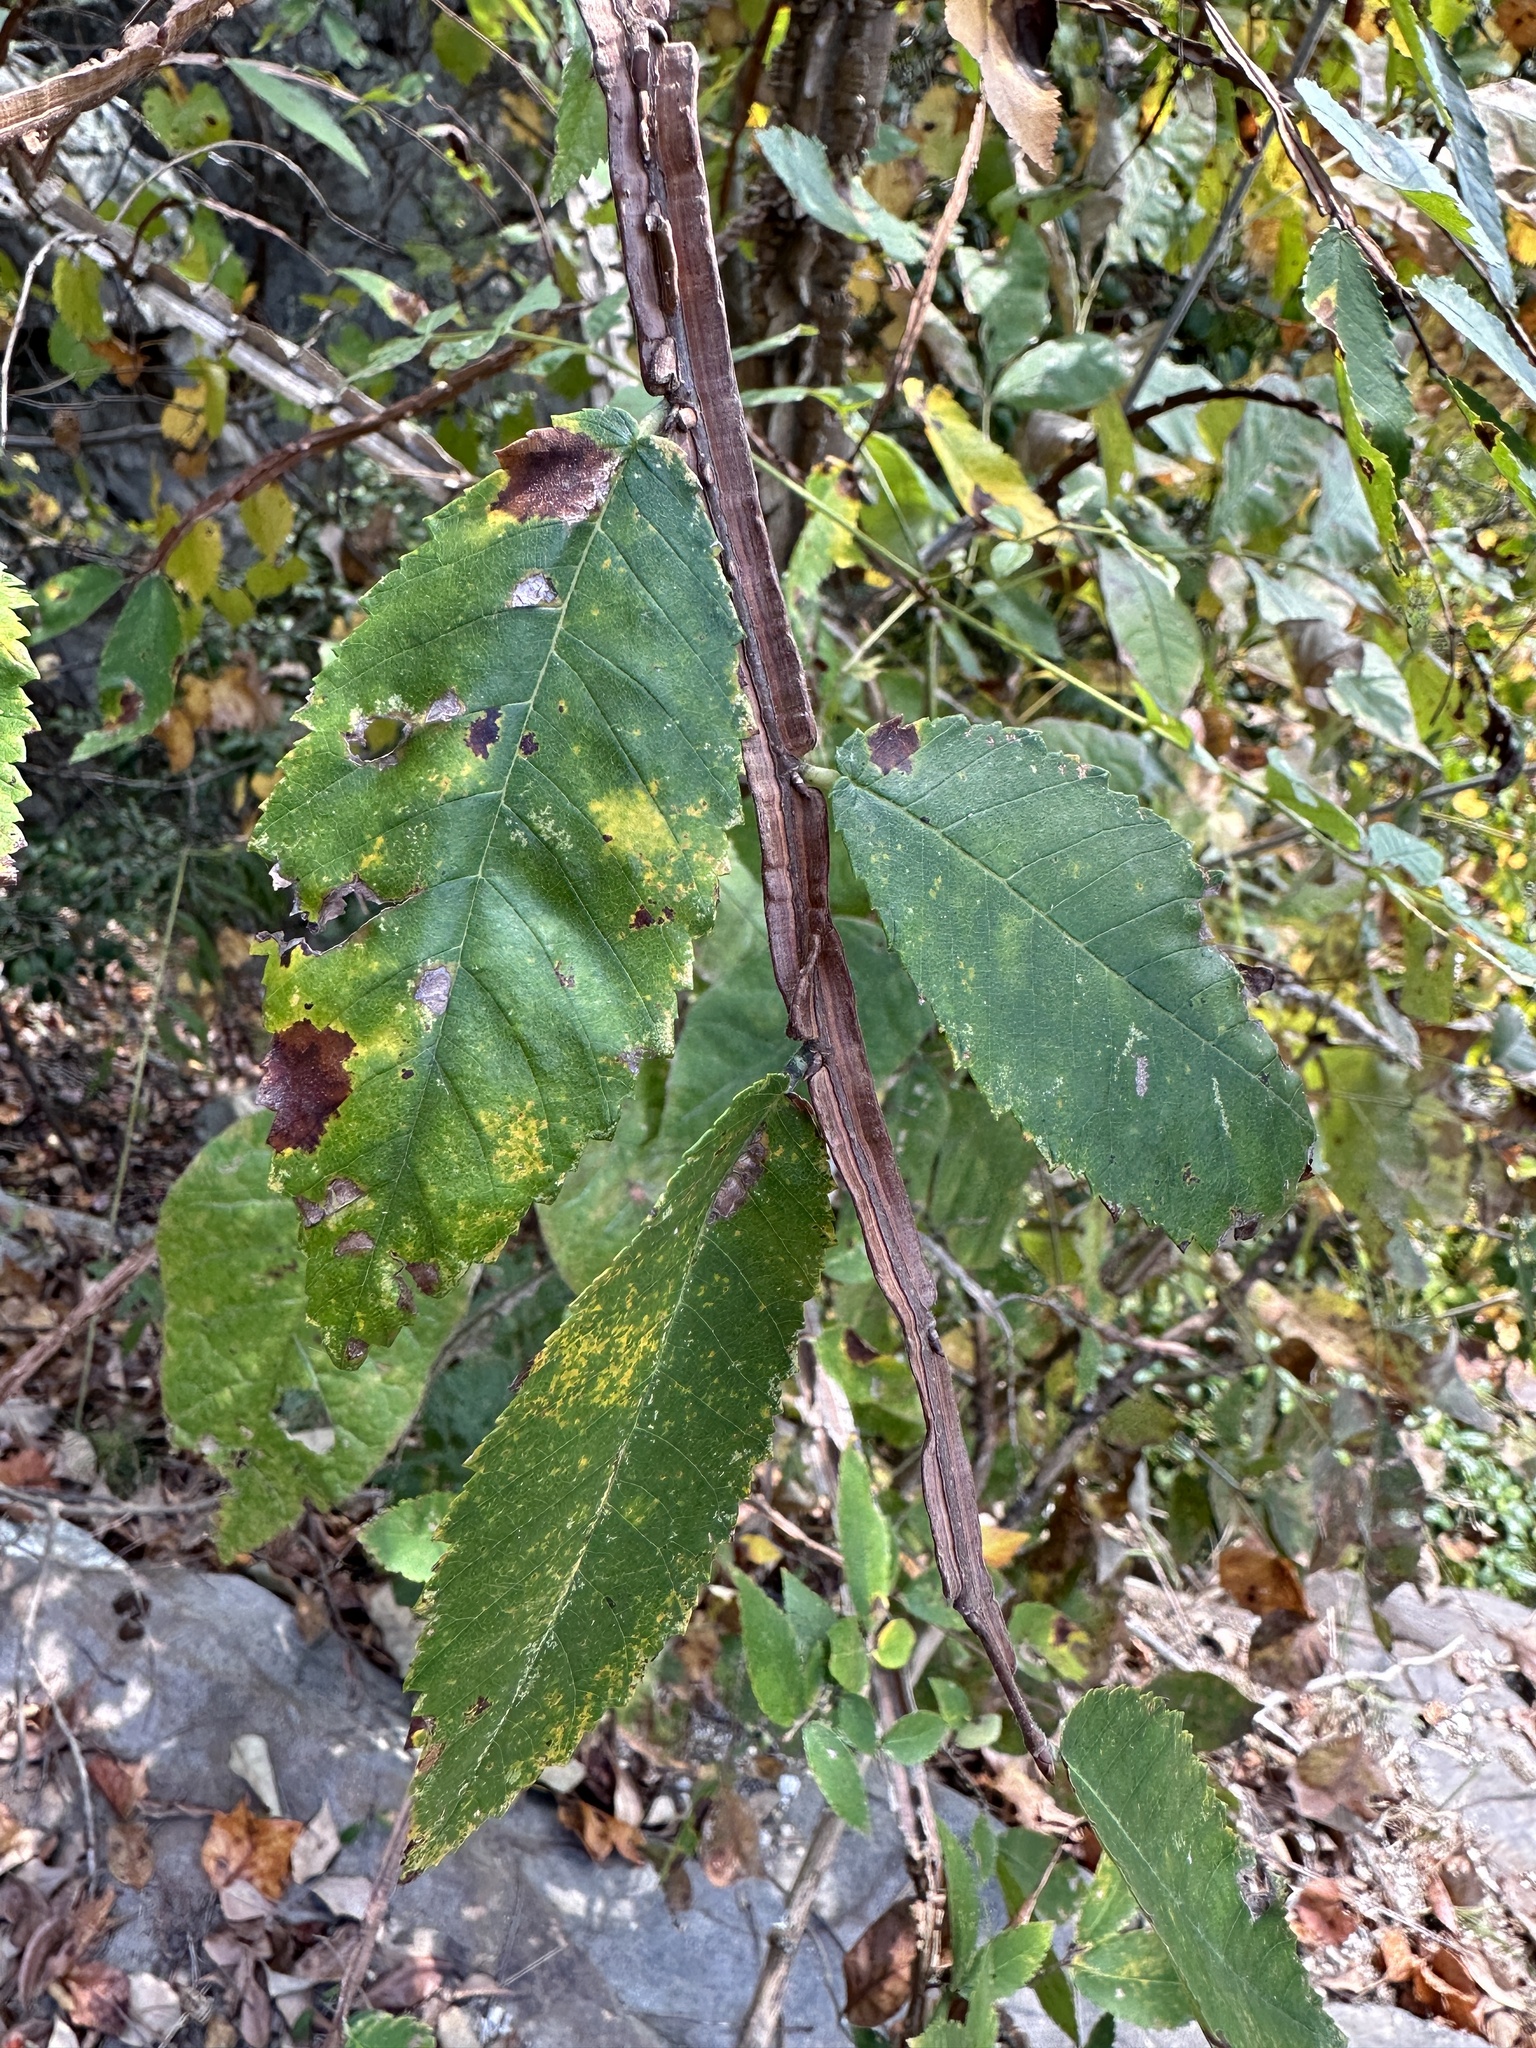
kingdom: Plantae
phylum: Tracheophyta
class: Magnoliopsida
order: Rosales
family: Ulmaceae
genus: Ulmus
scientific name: Ulmus alata
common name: Winged elm
